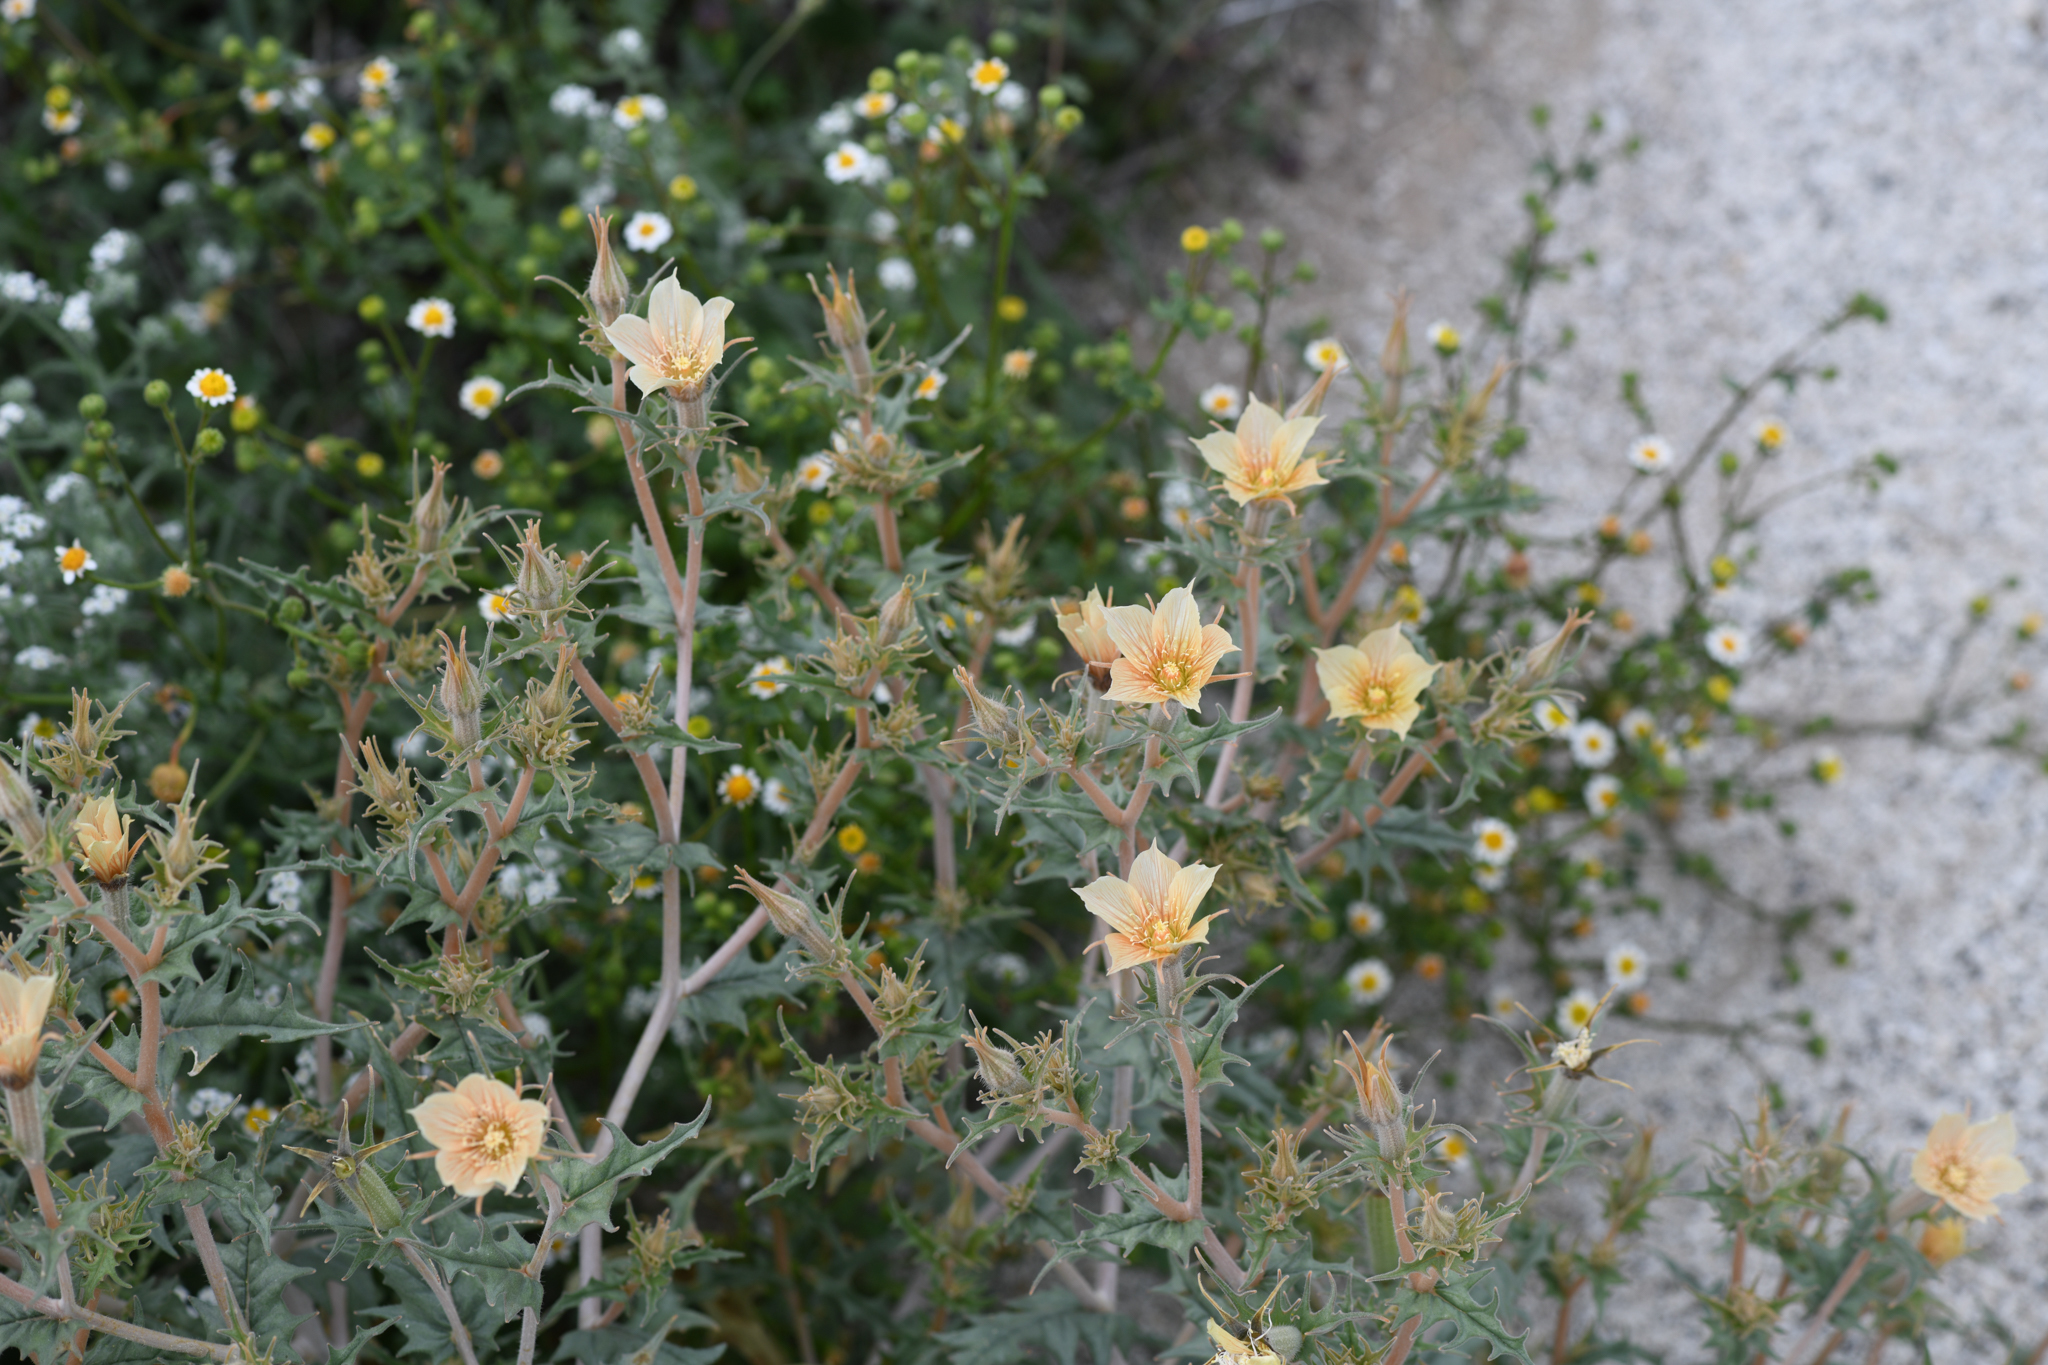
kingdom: Plantae
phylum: Tracheophyta
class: Magnoliopsida
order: Cornales
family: Loasaceae
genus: Mentzelia
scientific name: Mentzelia hirsutissima
